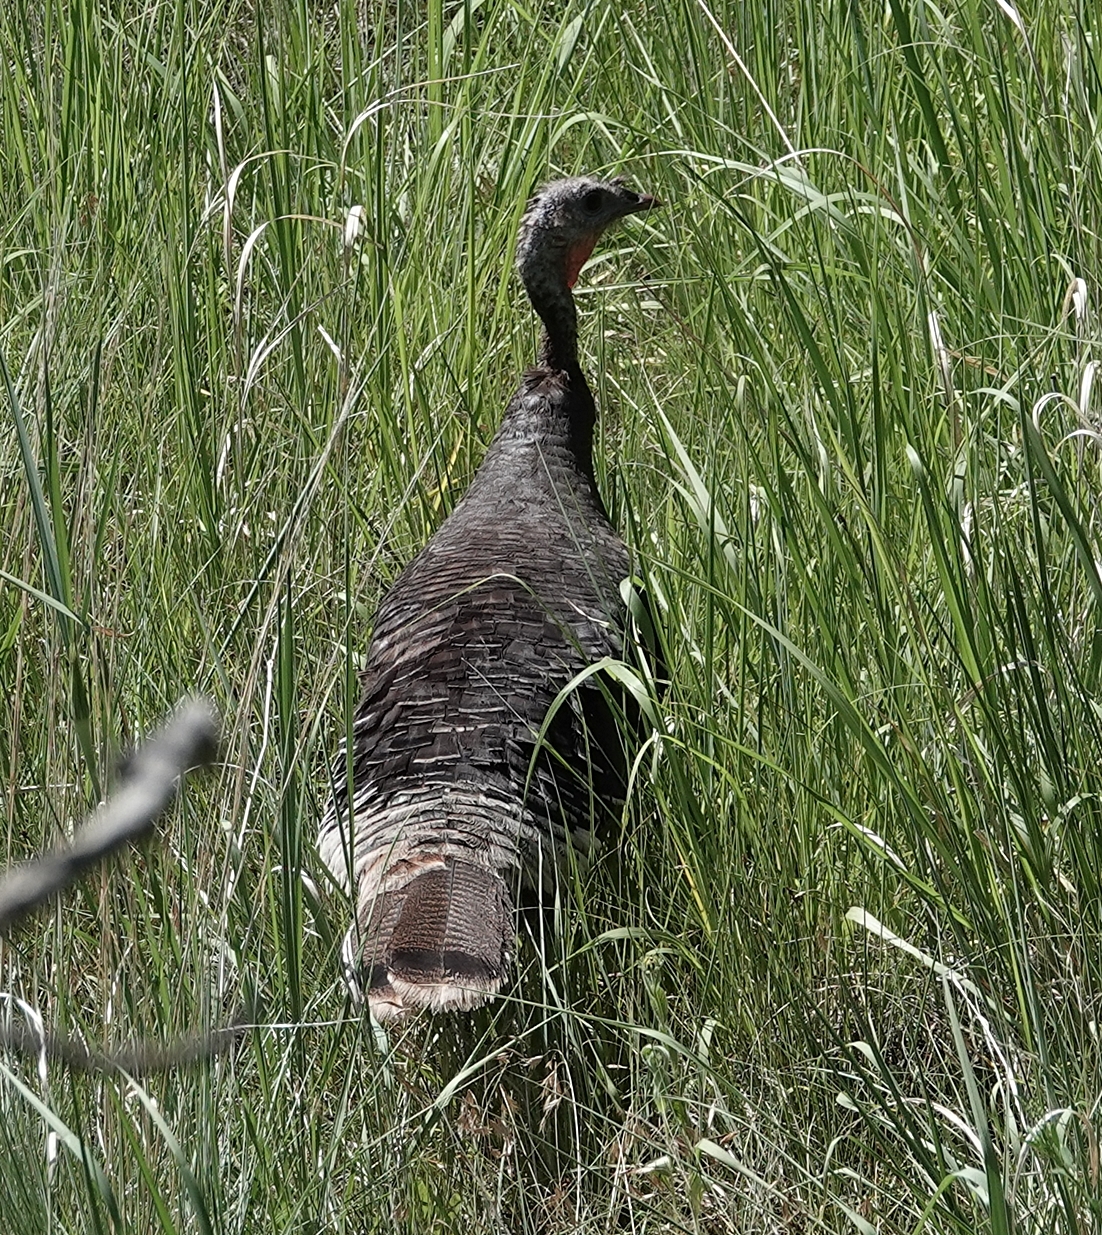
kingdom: Animalia
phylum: Chordata
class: Aves
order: Galliformes
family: Phasianidae
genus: Meleagris
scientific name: Meleagris gallopavo
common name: Wild turkey
